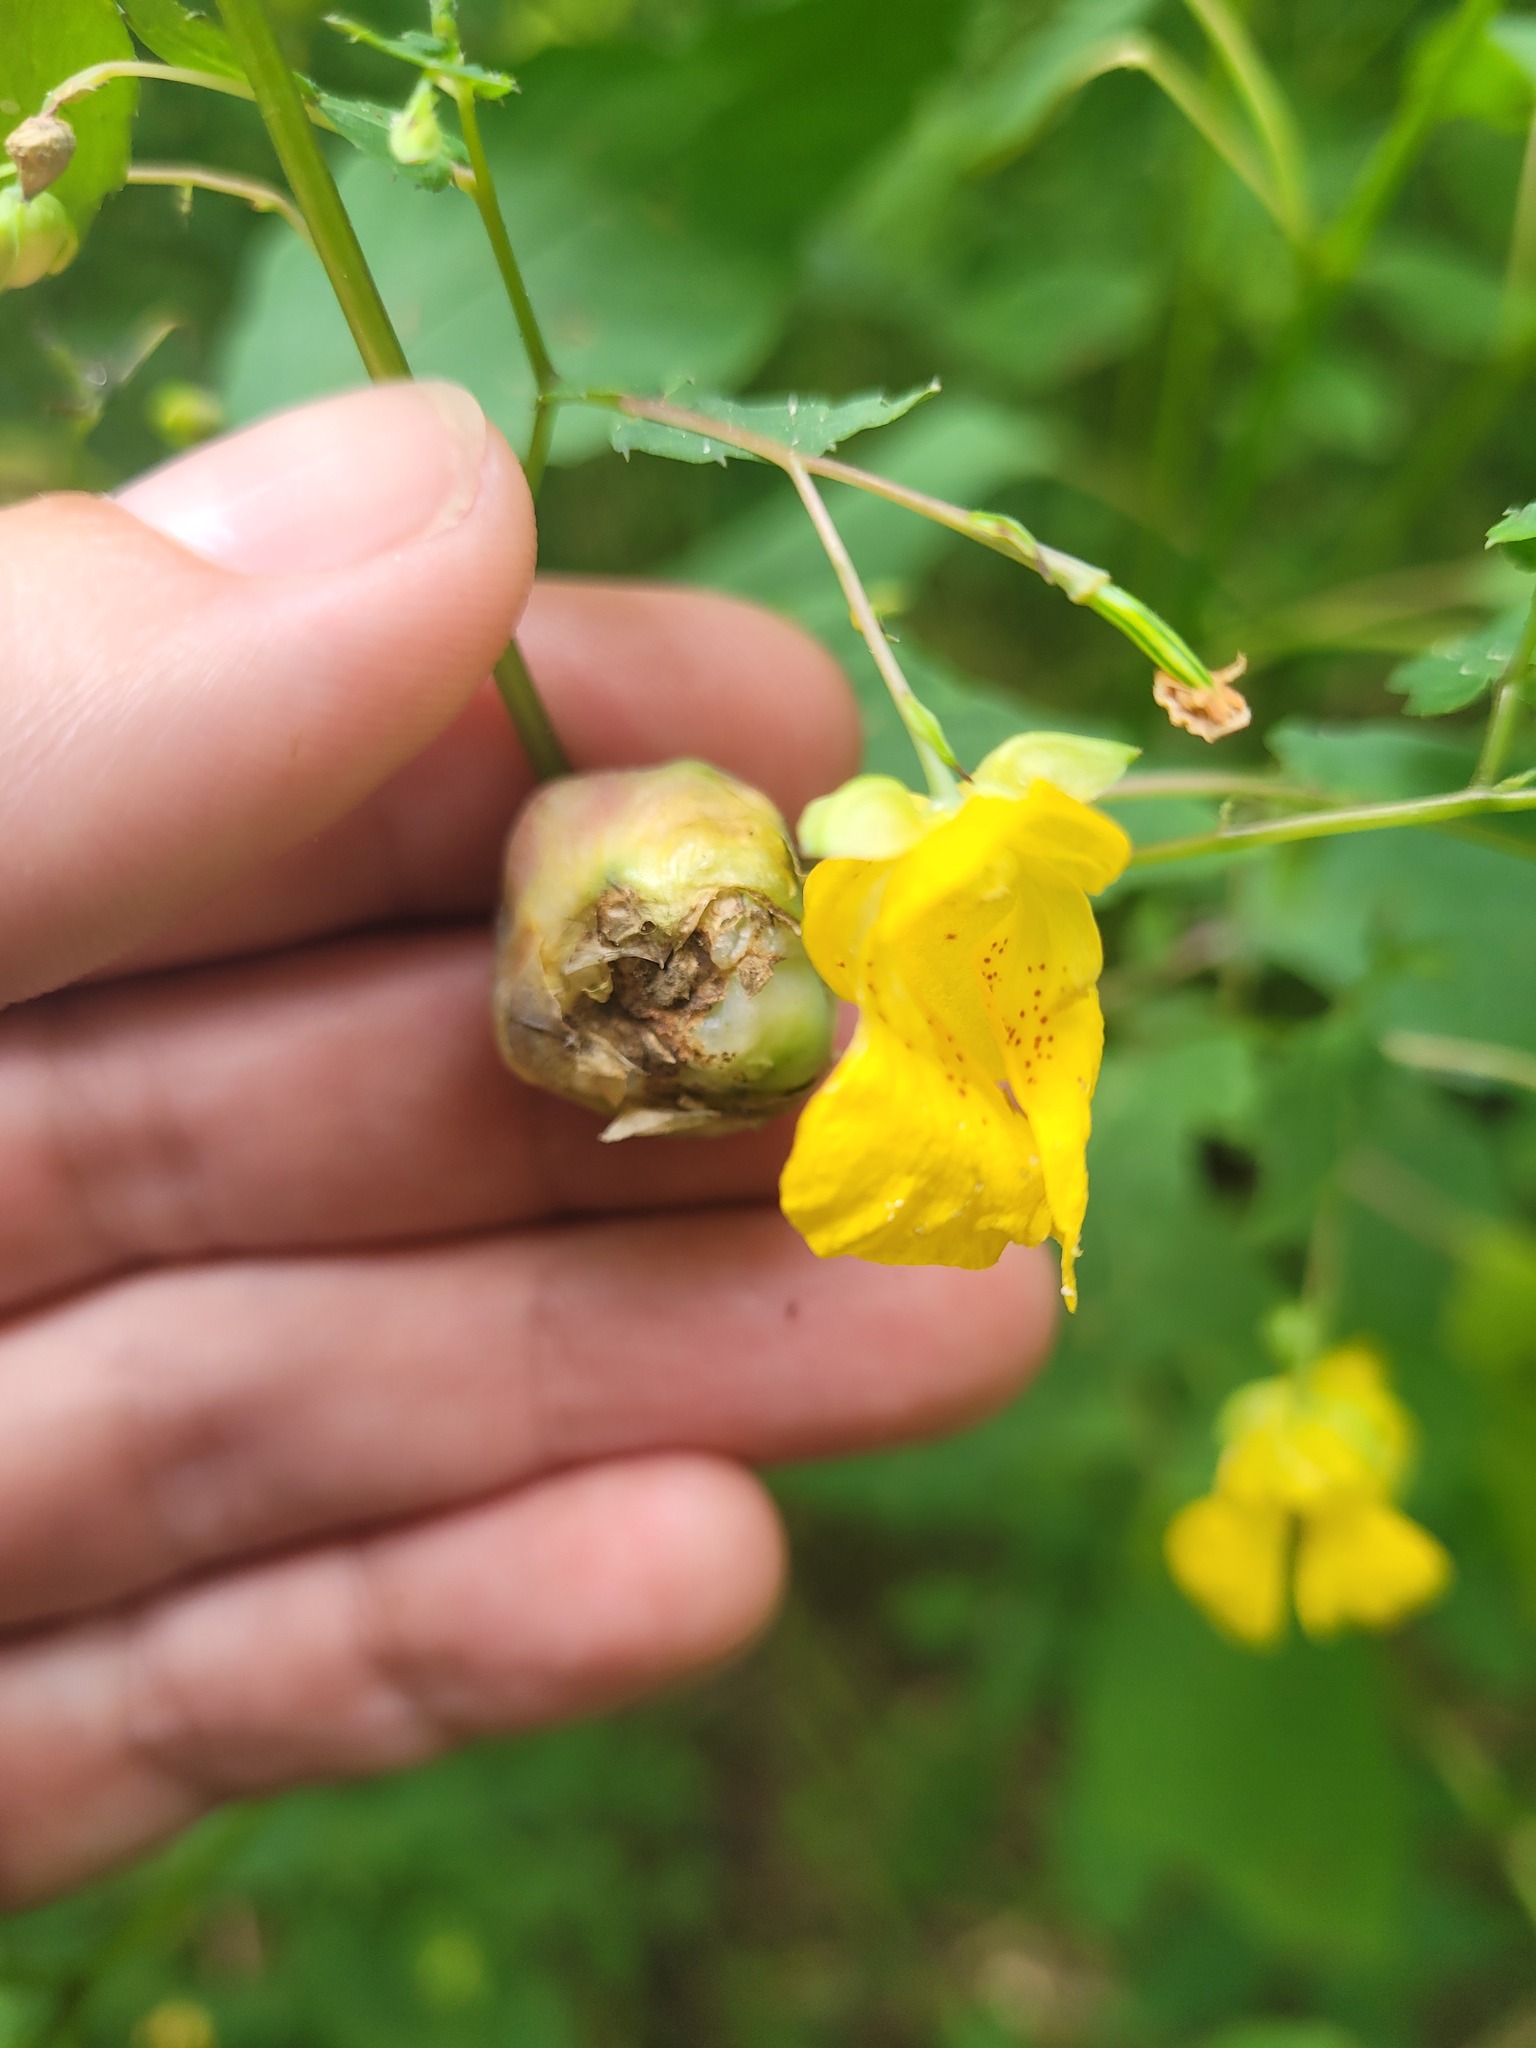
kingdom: Animalia
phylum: Arthropoda
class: Insecta
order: Diptera
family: Cecidomyiidae
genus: Schizomyia
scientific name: Schizomyia impatientis
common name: Jewelweed gall midge
